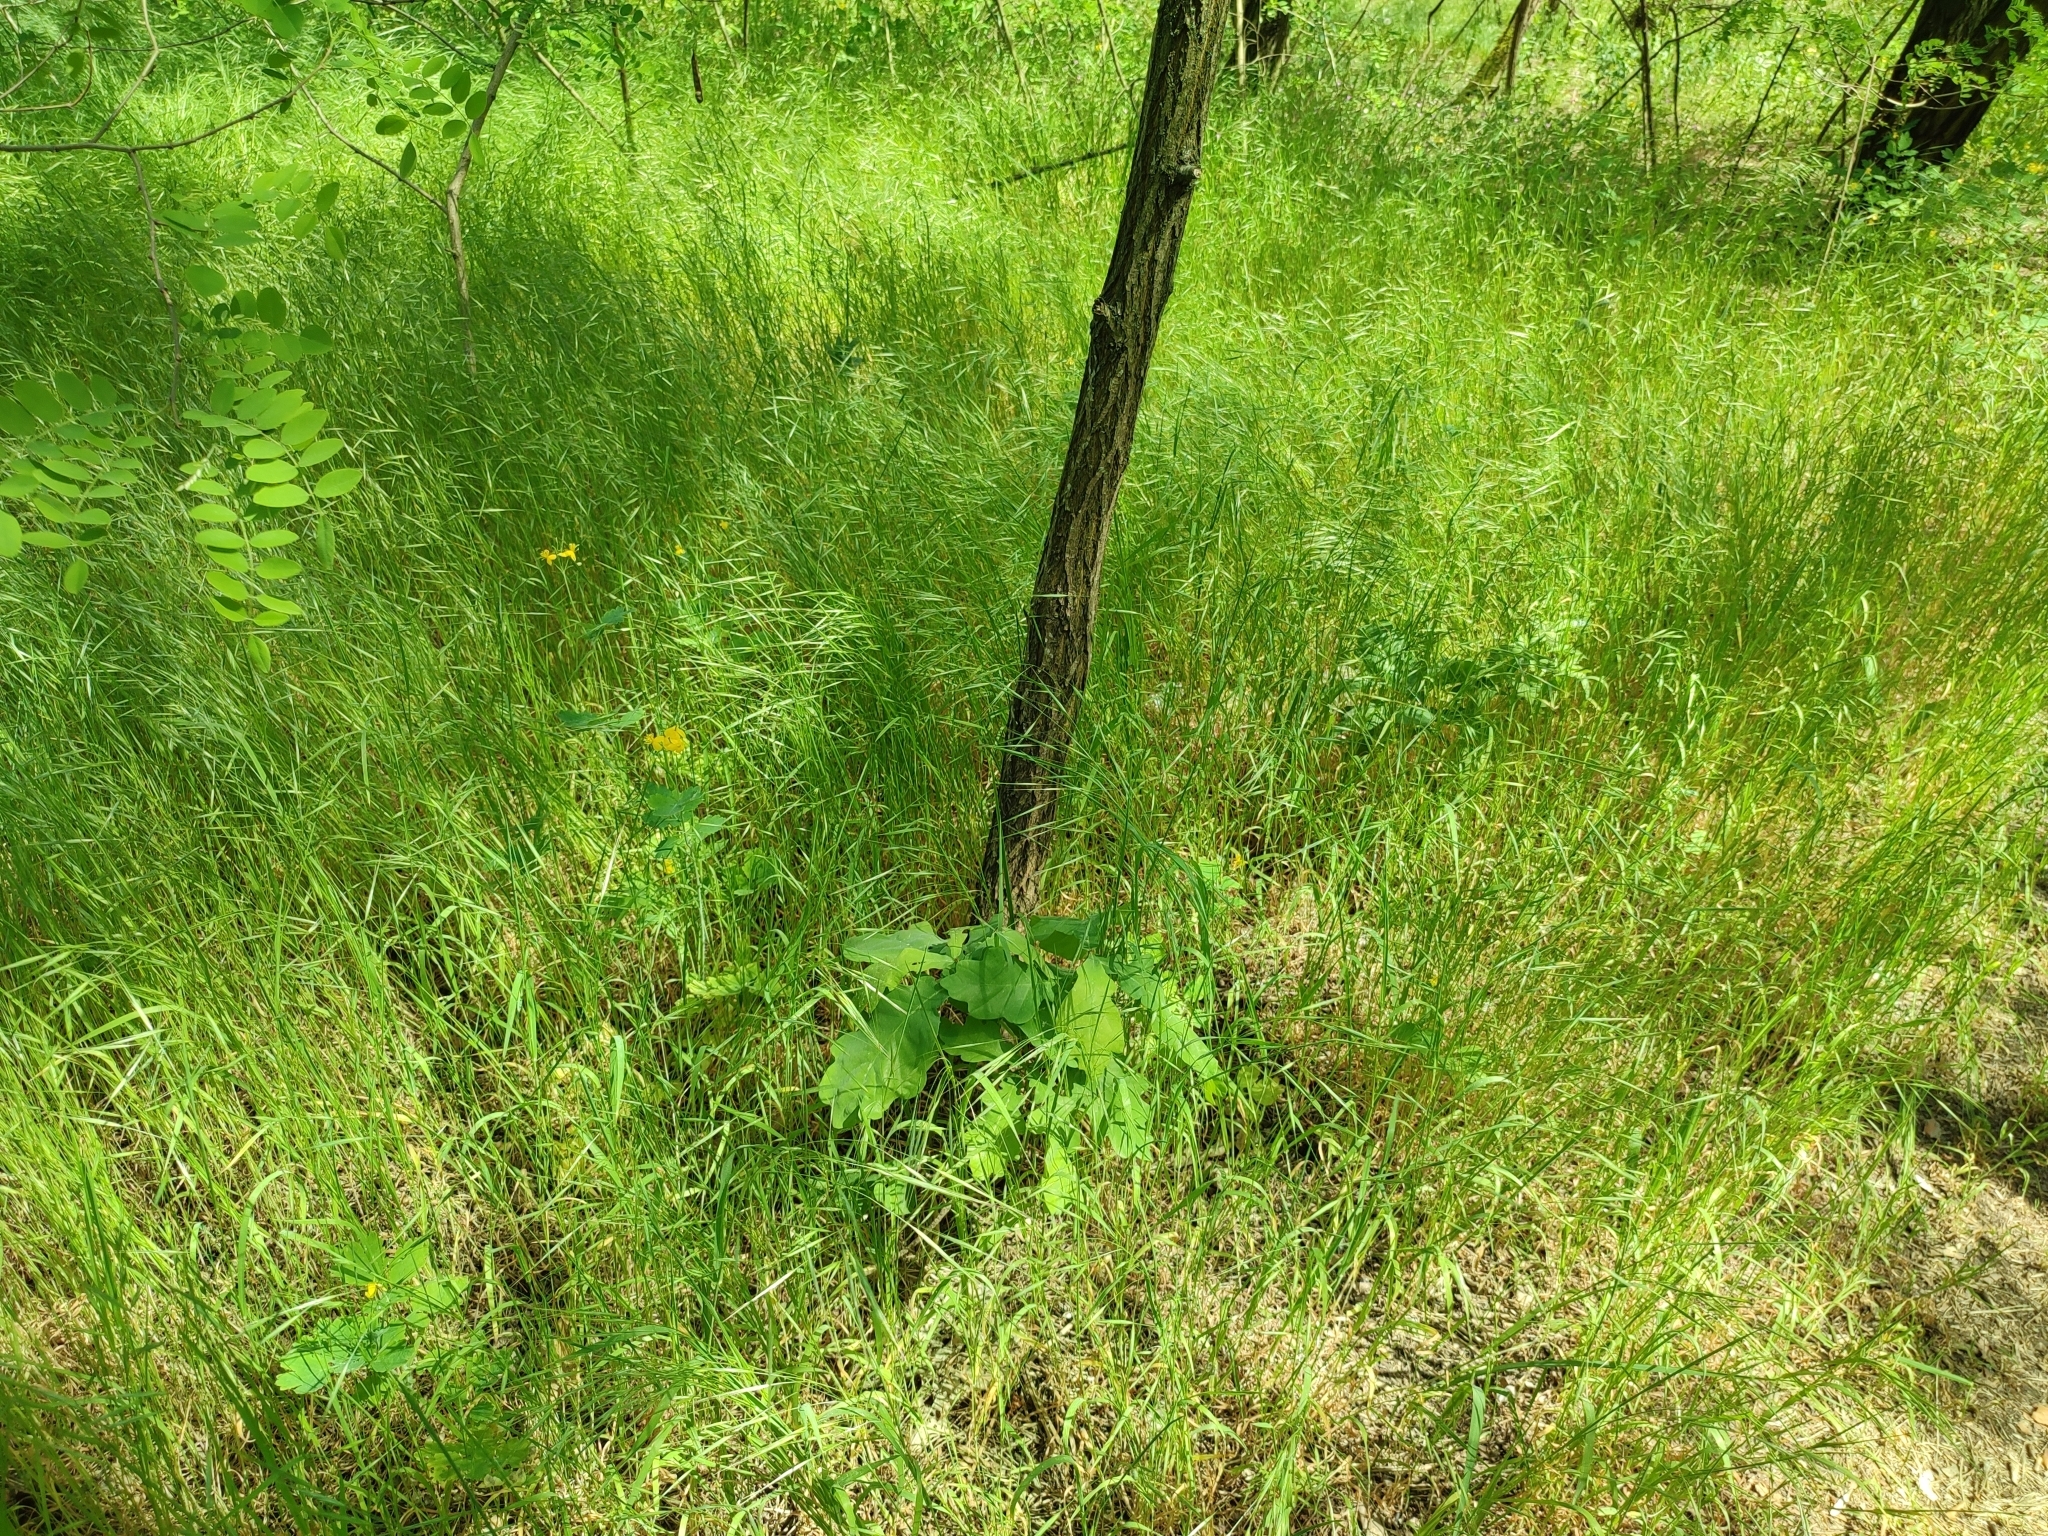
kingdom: Plantae
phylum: Tracheophyta
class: Magnoliopsida
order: Fagales
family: Fagaceae
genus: Quercus
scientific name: Quercus robur
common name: Pedunculate oak
